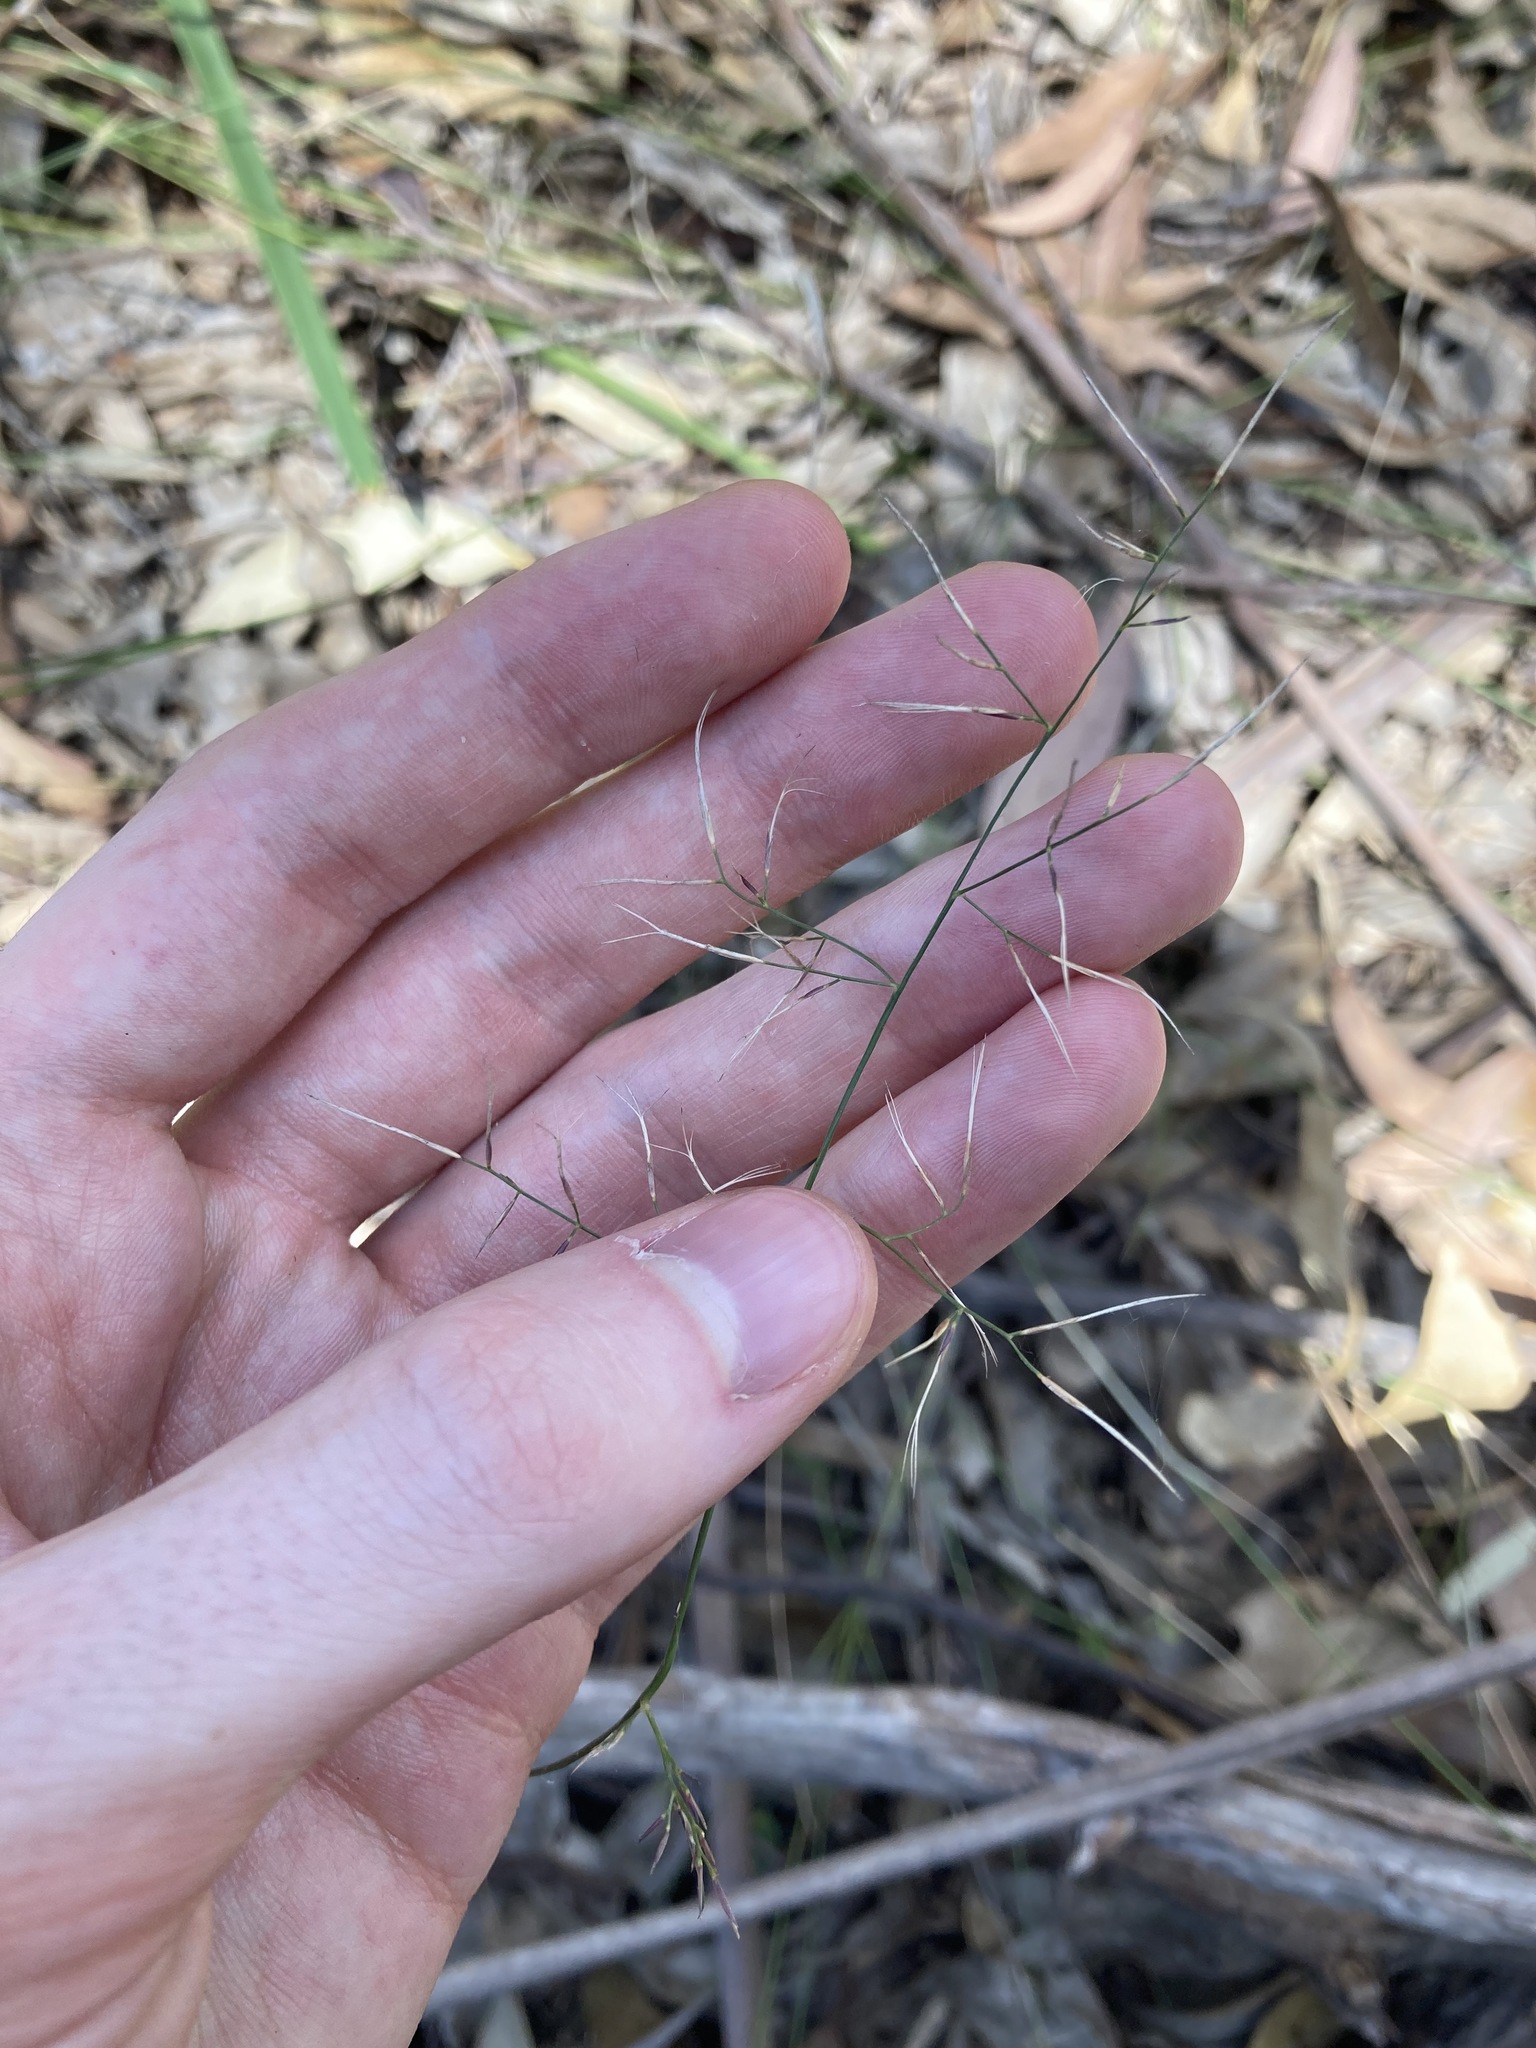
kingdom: Plantae
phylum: Tracheophyta
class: Liliopsida
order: Poales
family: Poaceae
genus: Aristida
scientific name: Aristida vagans
